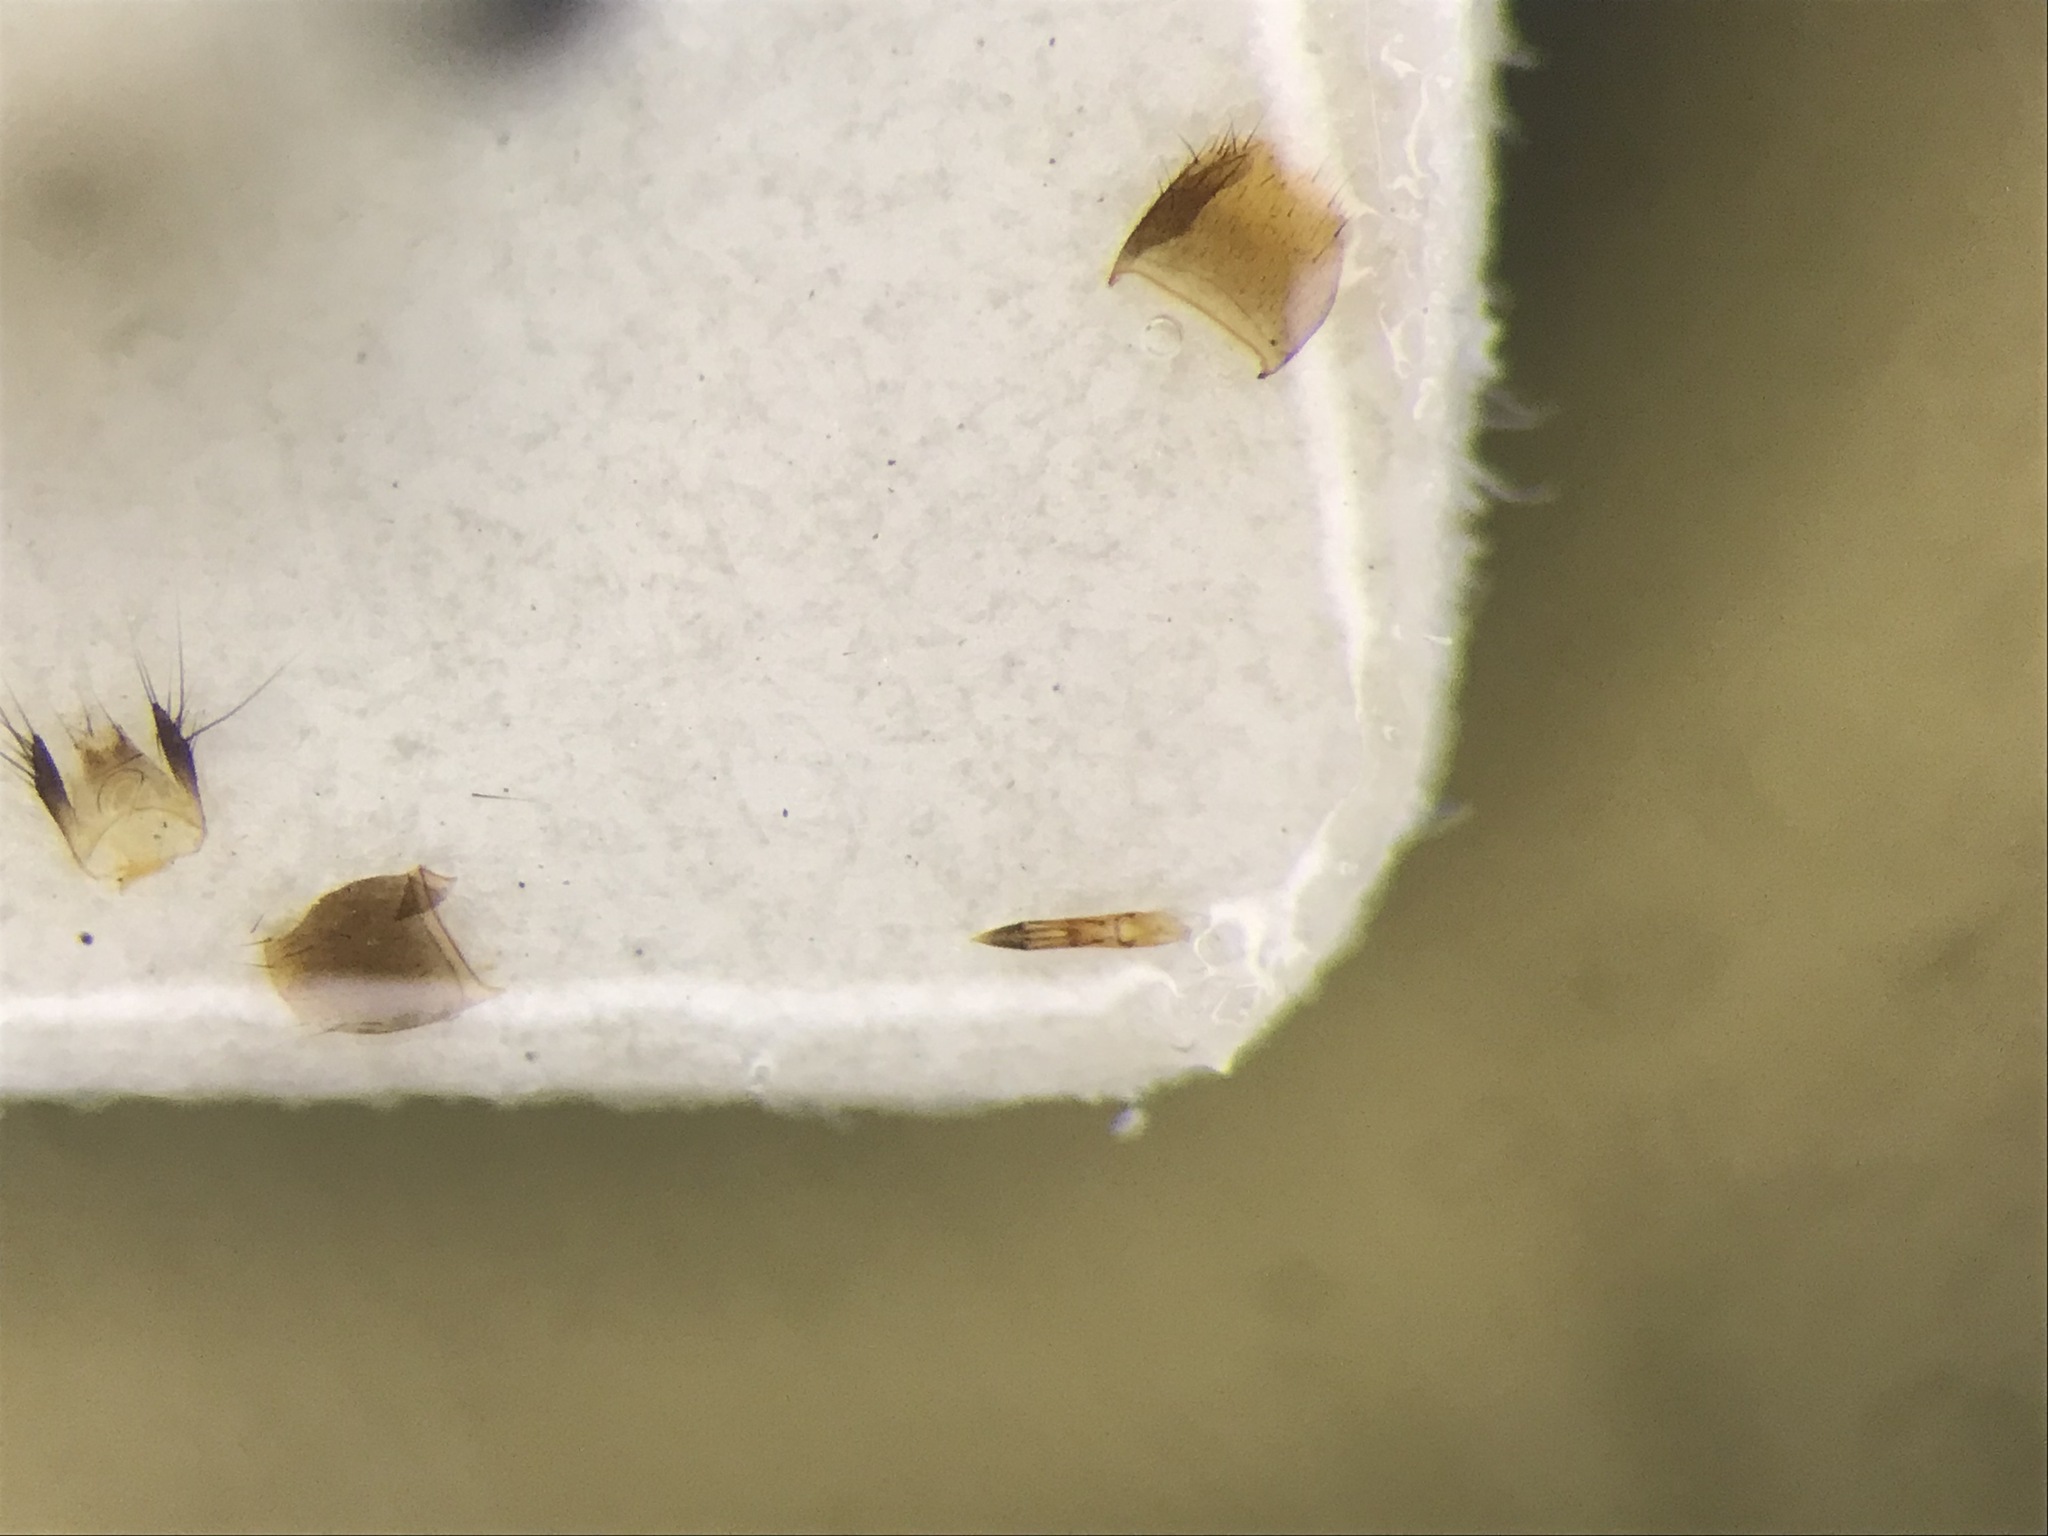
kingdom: Animalia
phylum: Arthropoda
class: Insecta
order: Coleoptera
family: Staphylinidae
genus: Gabronthus
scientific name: Gabronthus thermarum
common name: Staph beetle
